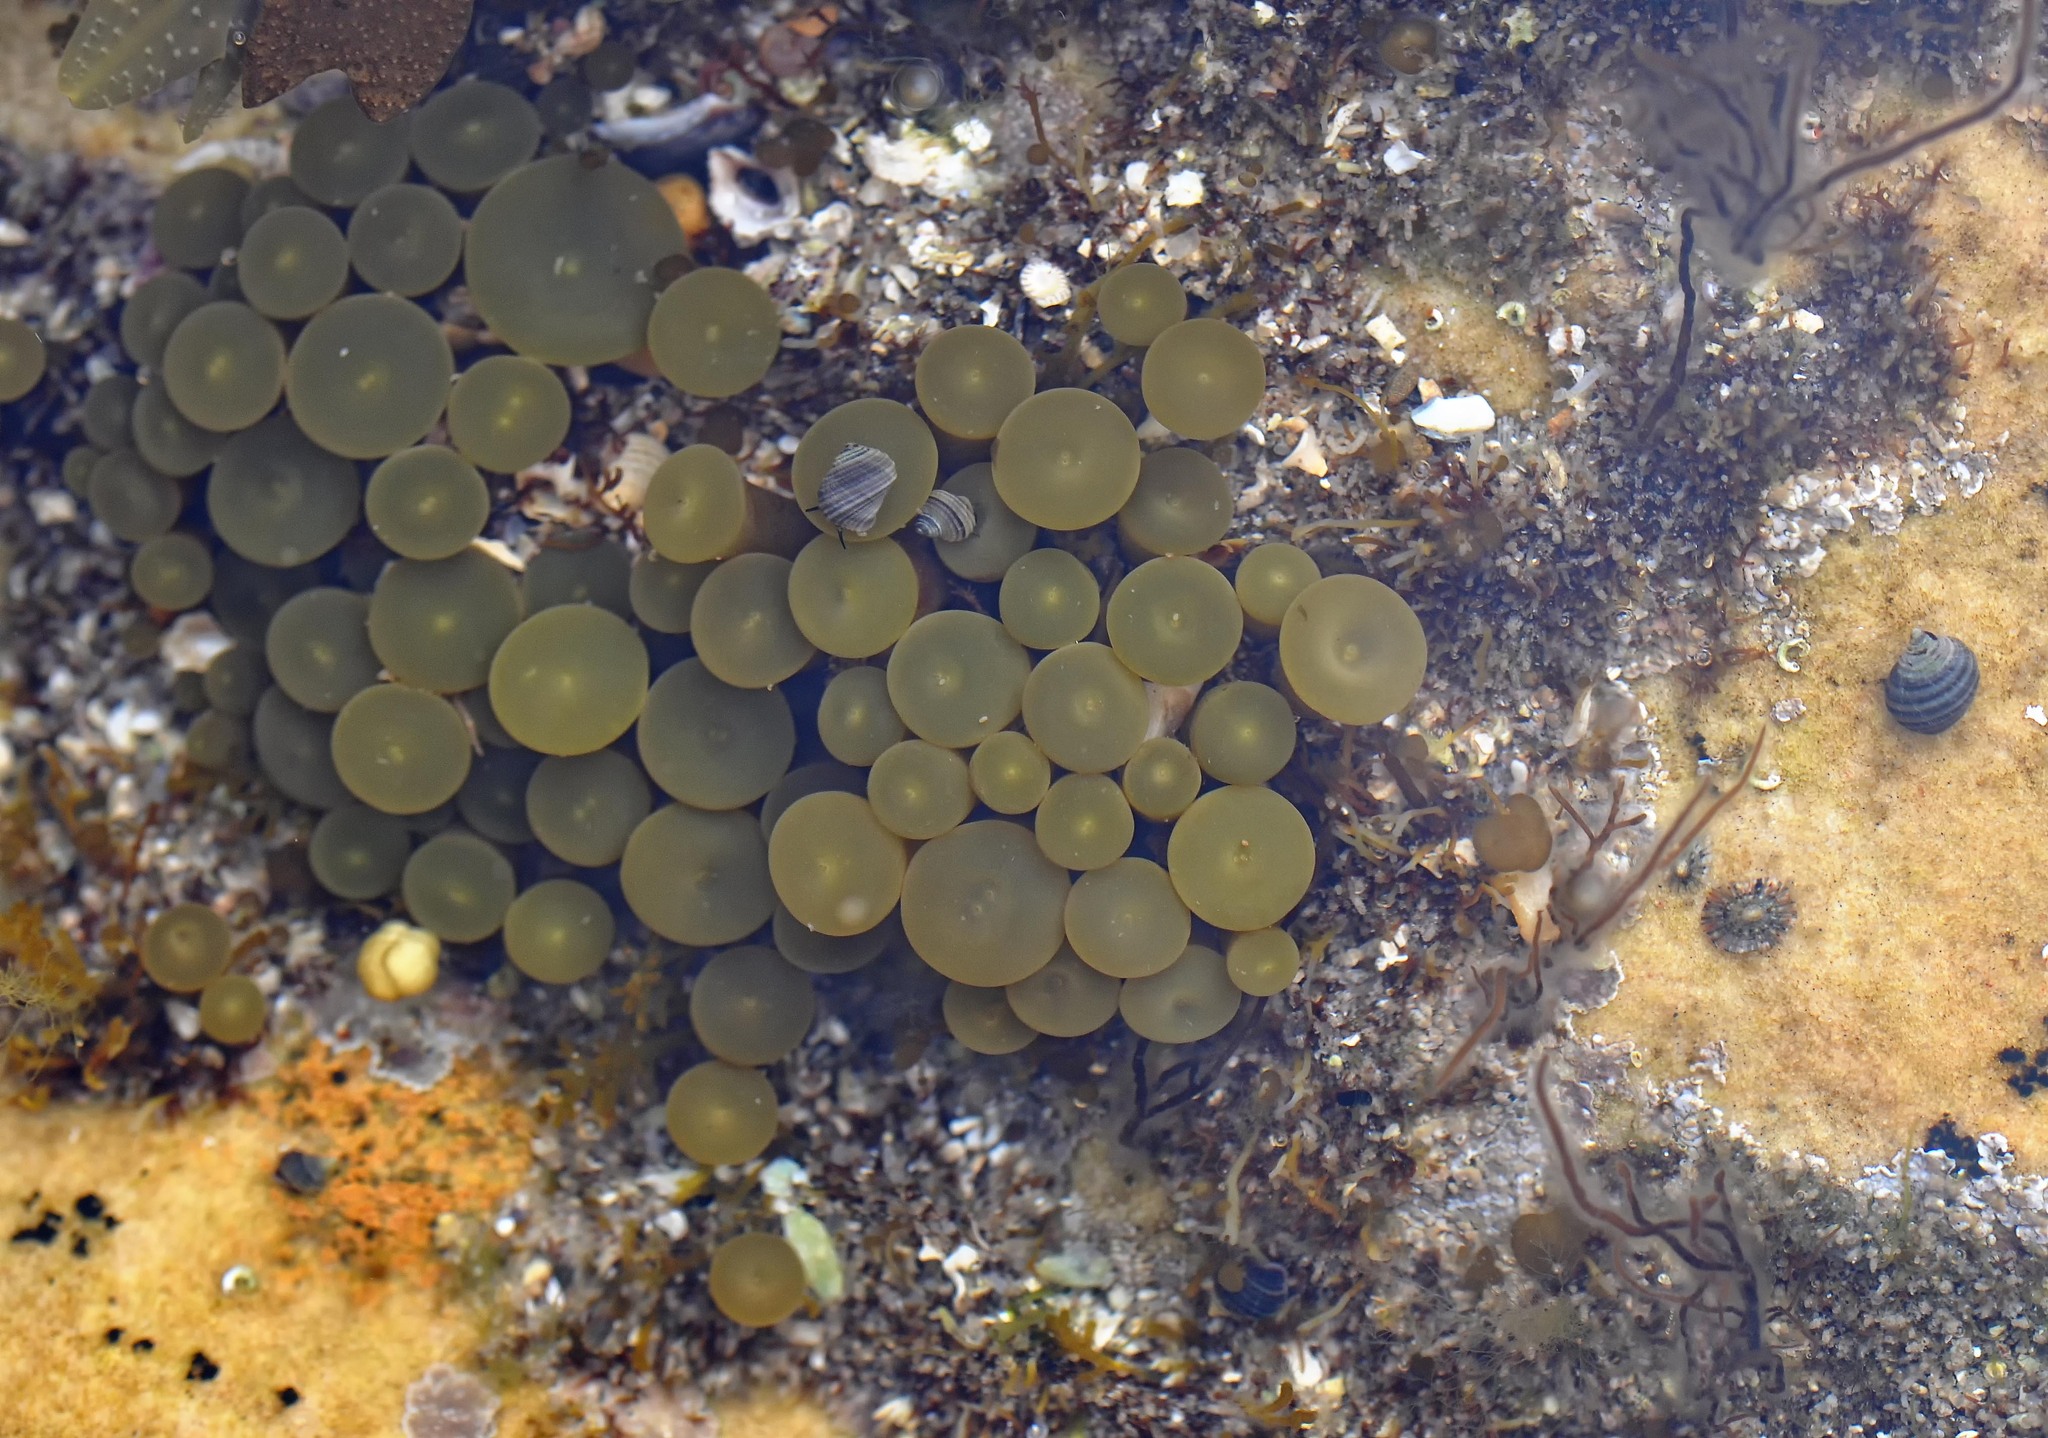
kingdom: Chromista
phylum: Ochrophyta
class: Phaeophyceae
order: Fucales
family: Himanthaliaceae
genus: Himanthalia
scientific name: Himanthalia elongata
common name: Sea-thong
